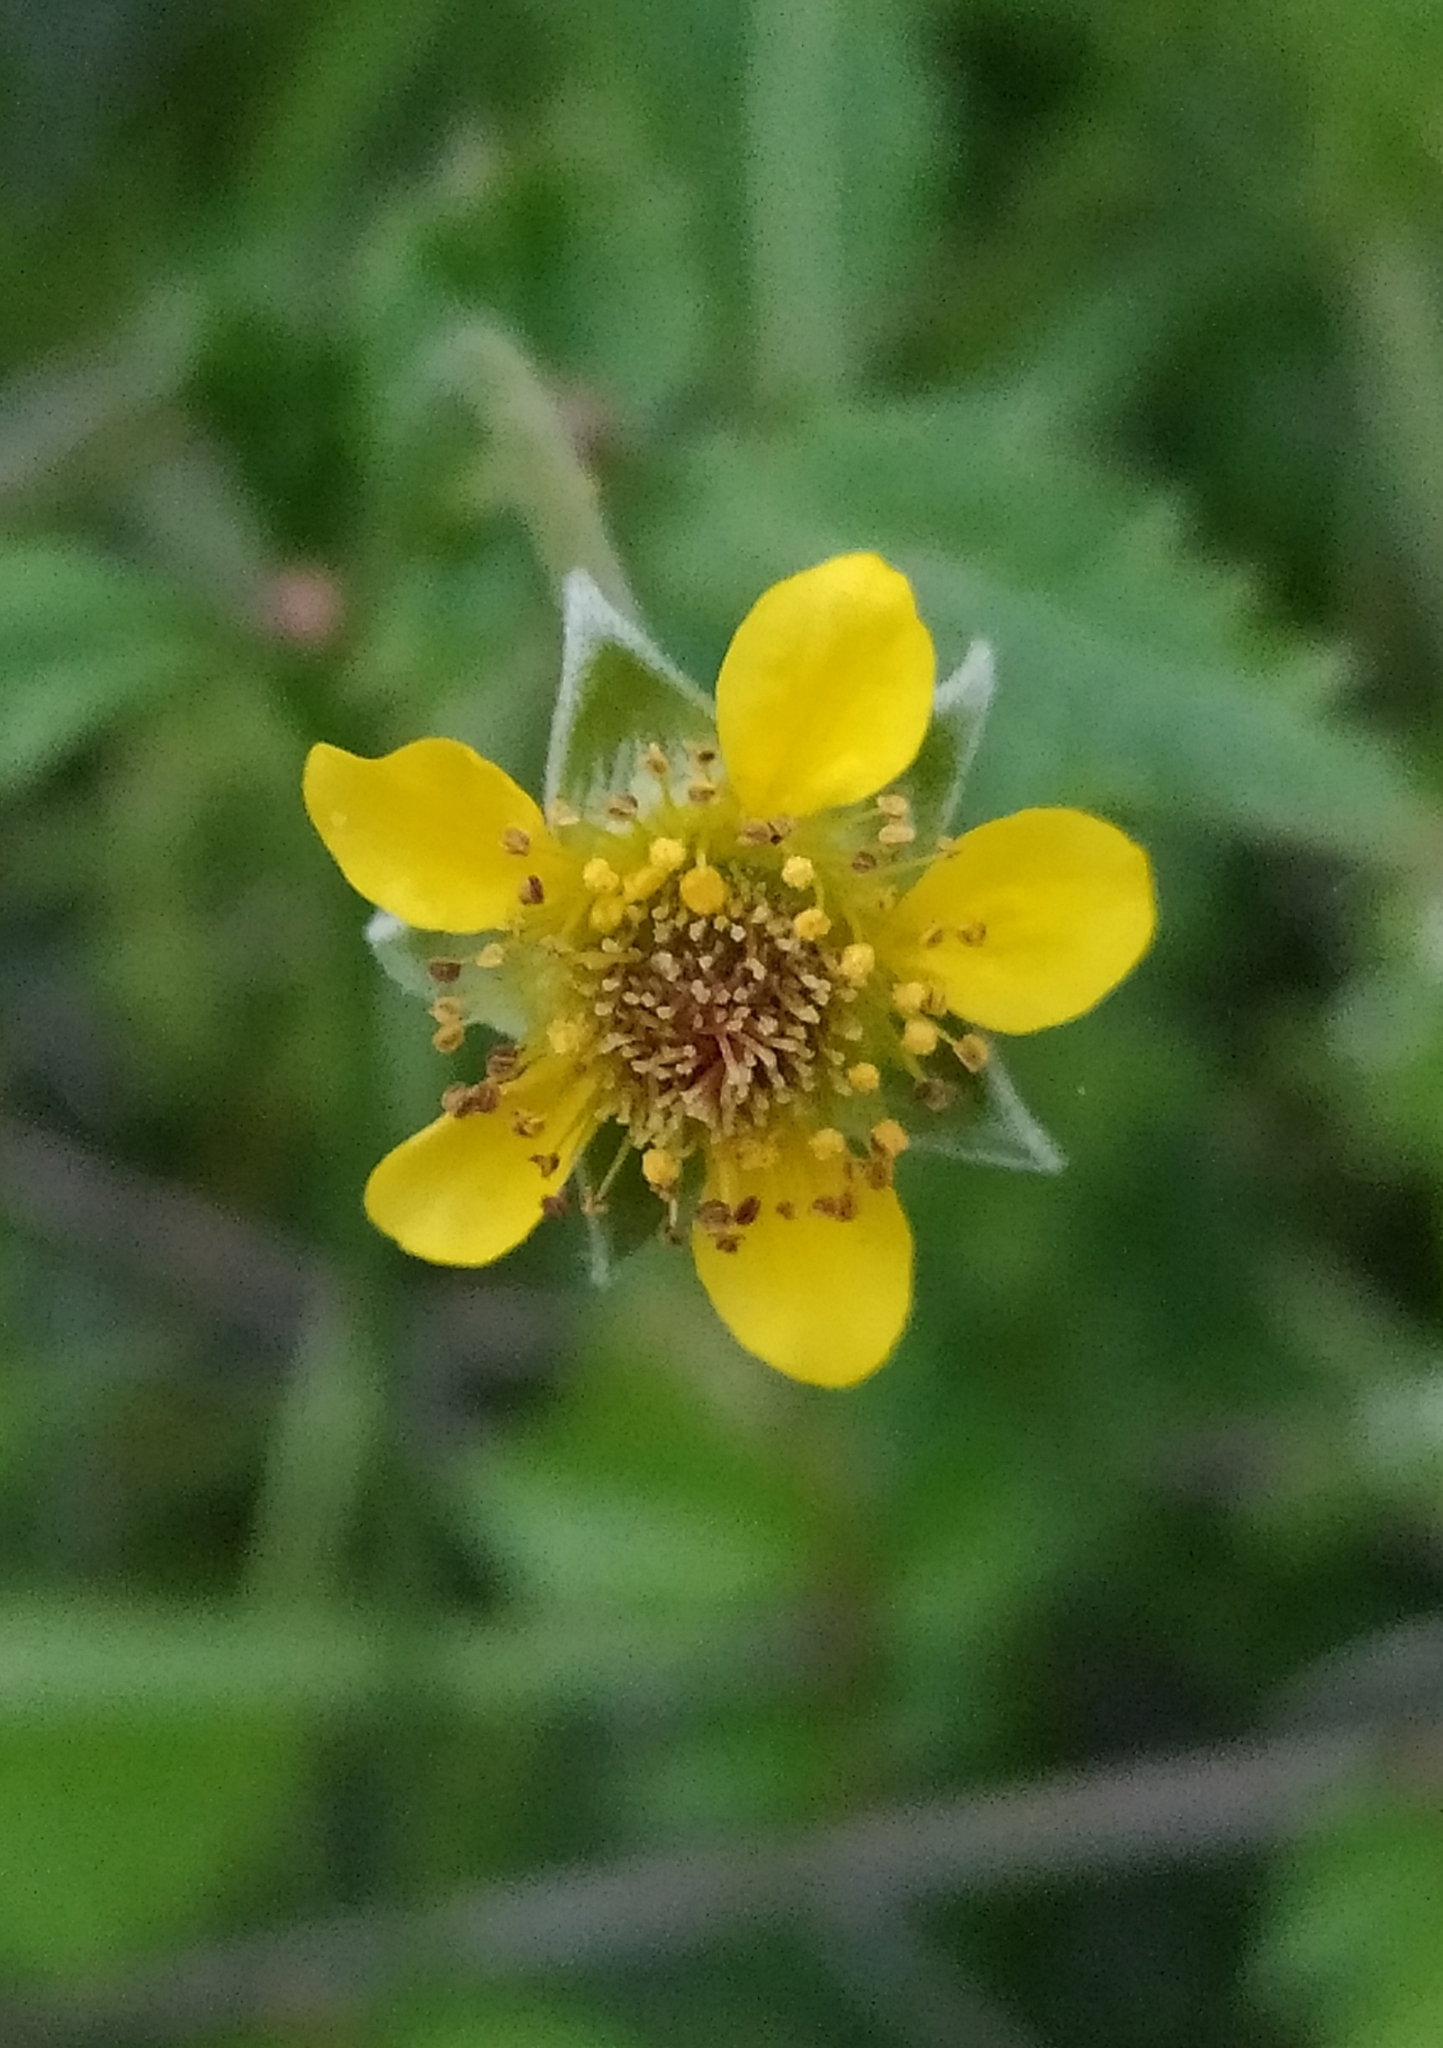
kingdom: Plantae
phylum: Tracheophyta
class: Magnoliopsida
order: Rosales
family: Rosaceae
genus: Geum
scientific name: Geum urbanum
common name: Wood avens
